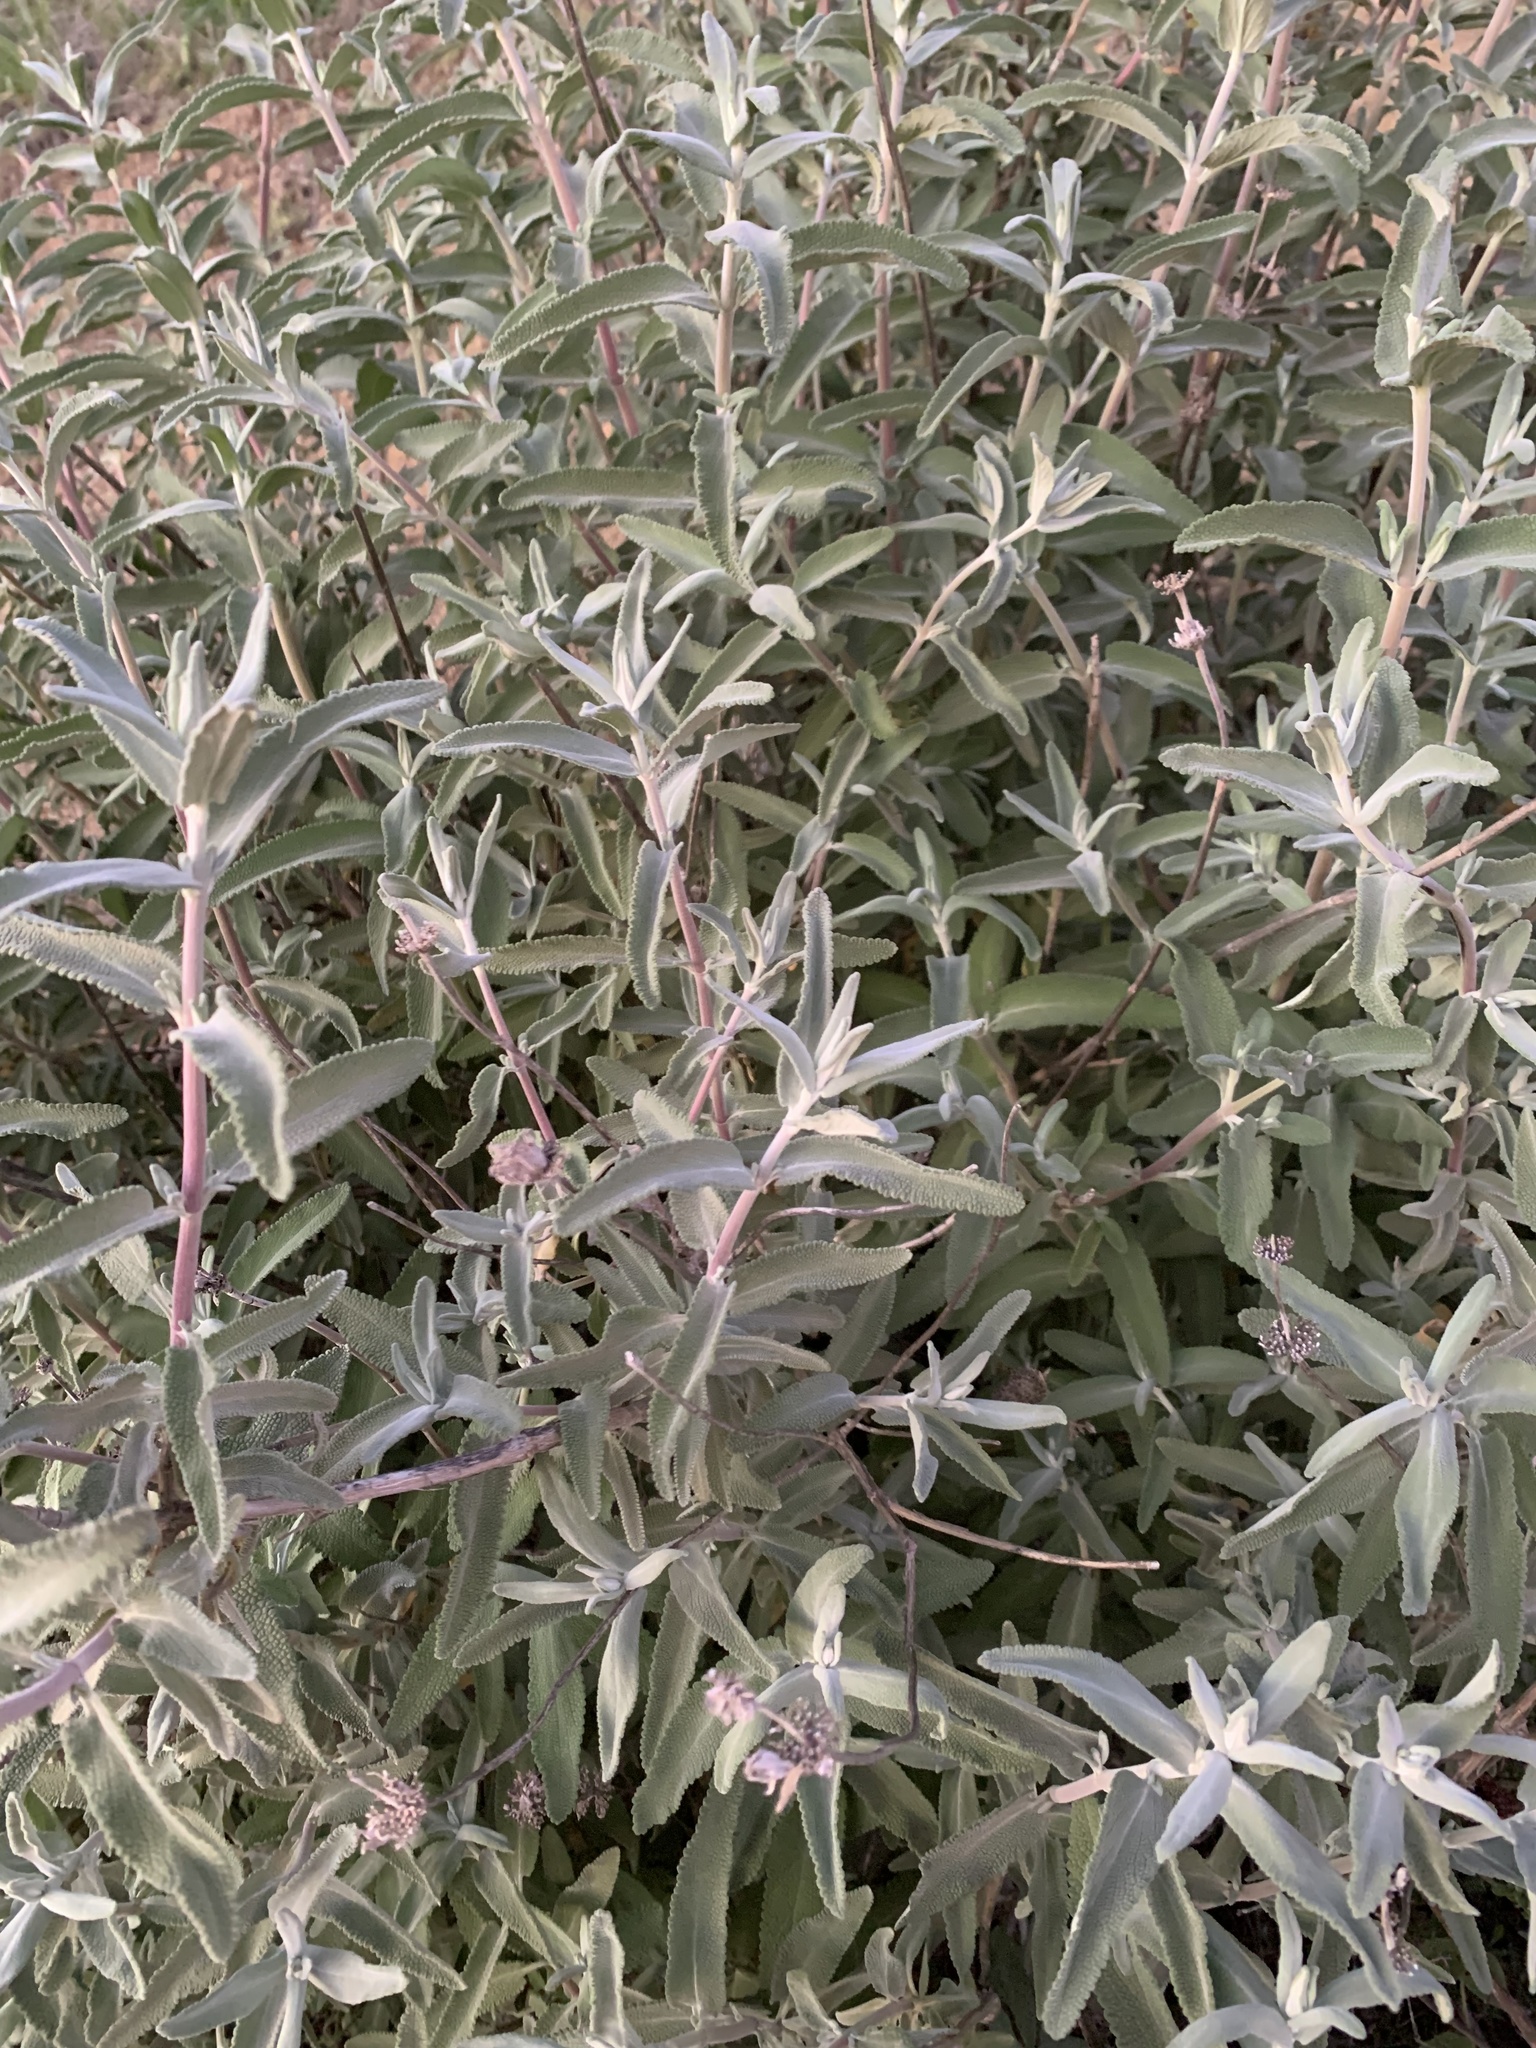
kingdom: Plantae
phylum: Tracheophyta
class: Magnoliopsida
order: Lamiales
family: Lamiaceae
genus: Salvia
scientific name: Salvia leucophylla
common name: Purple sage
